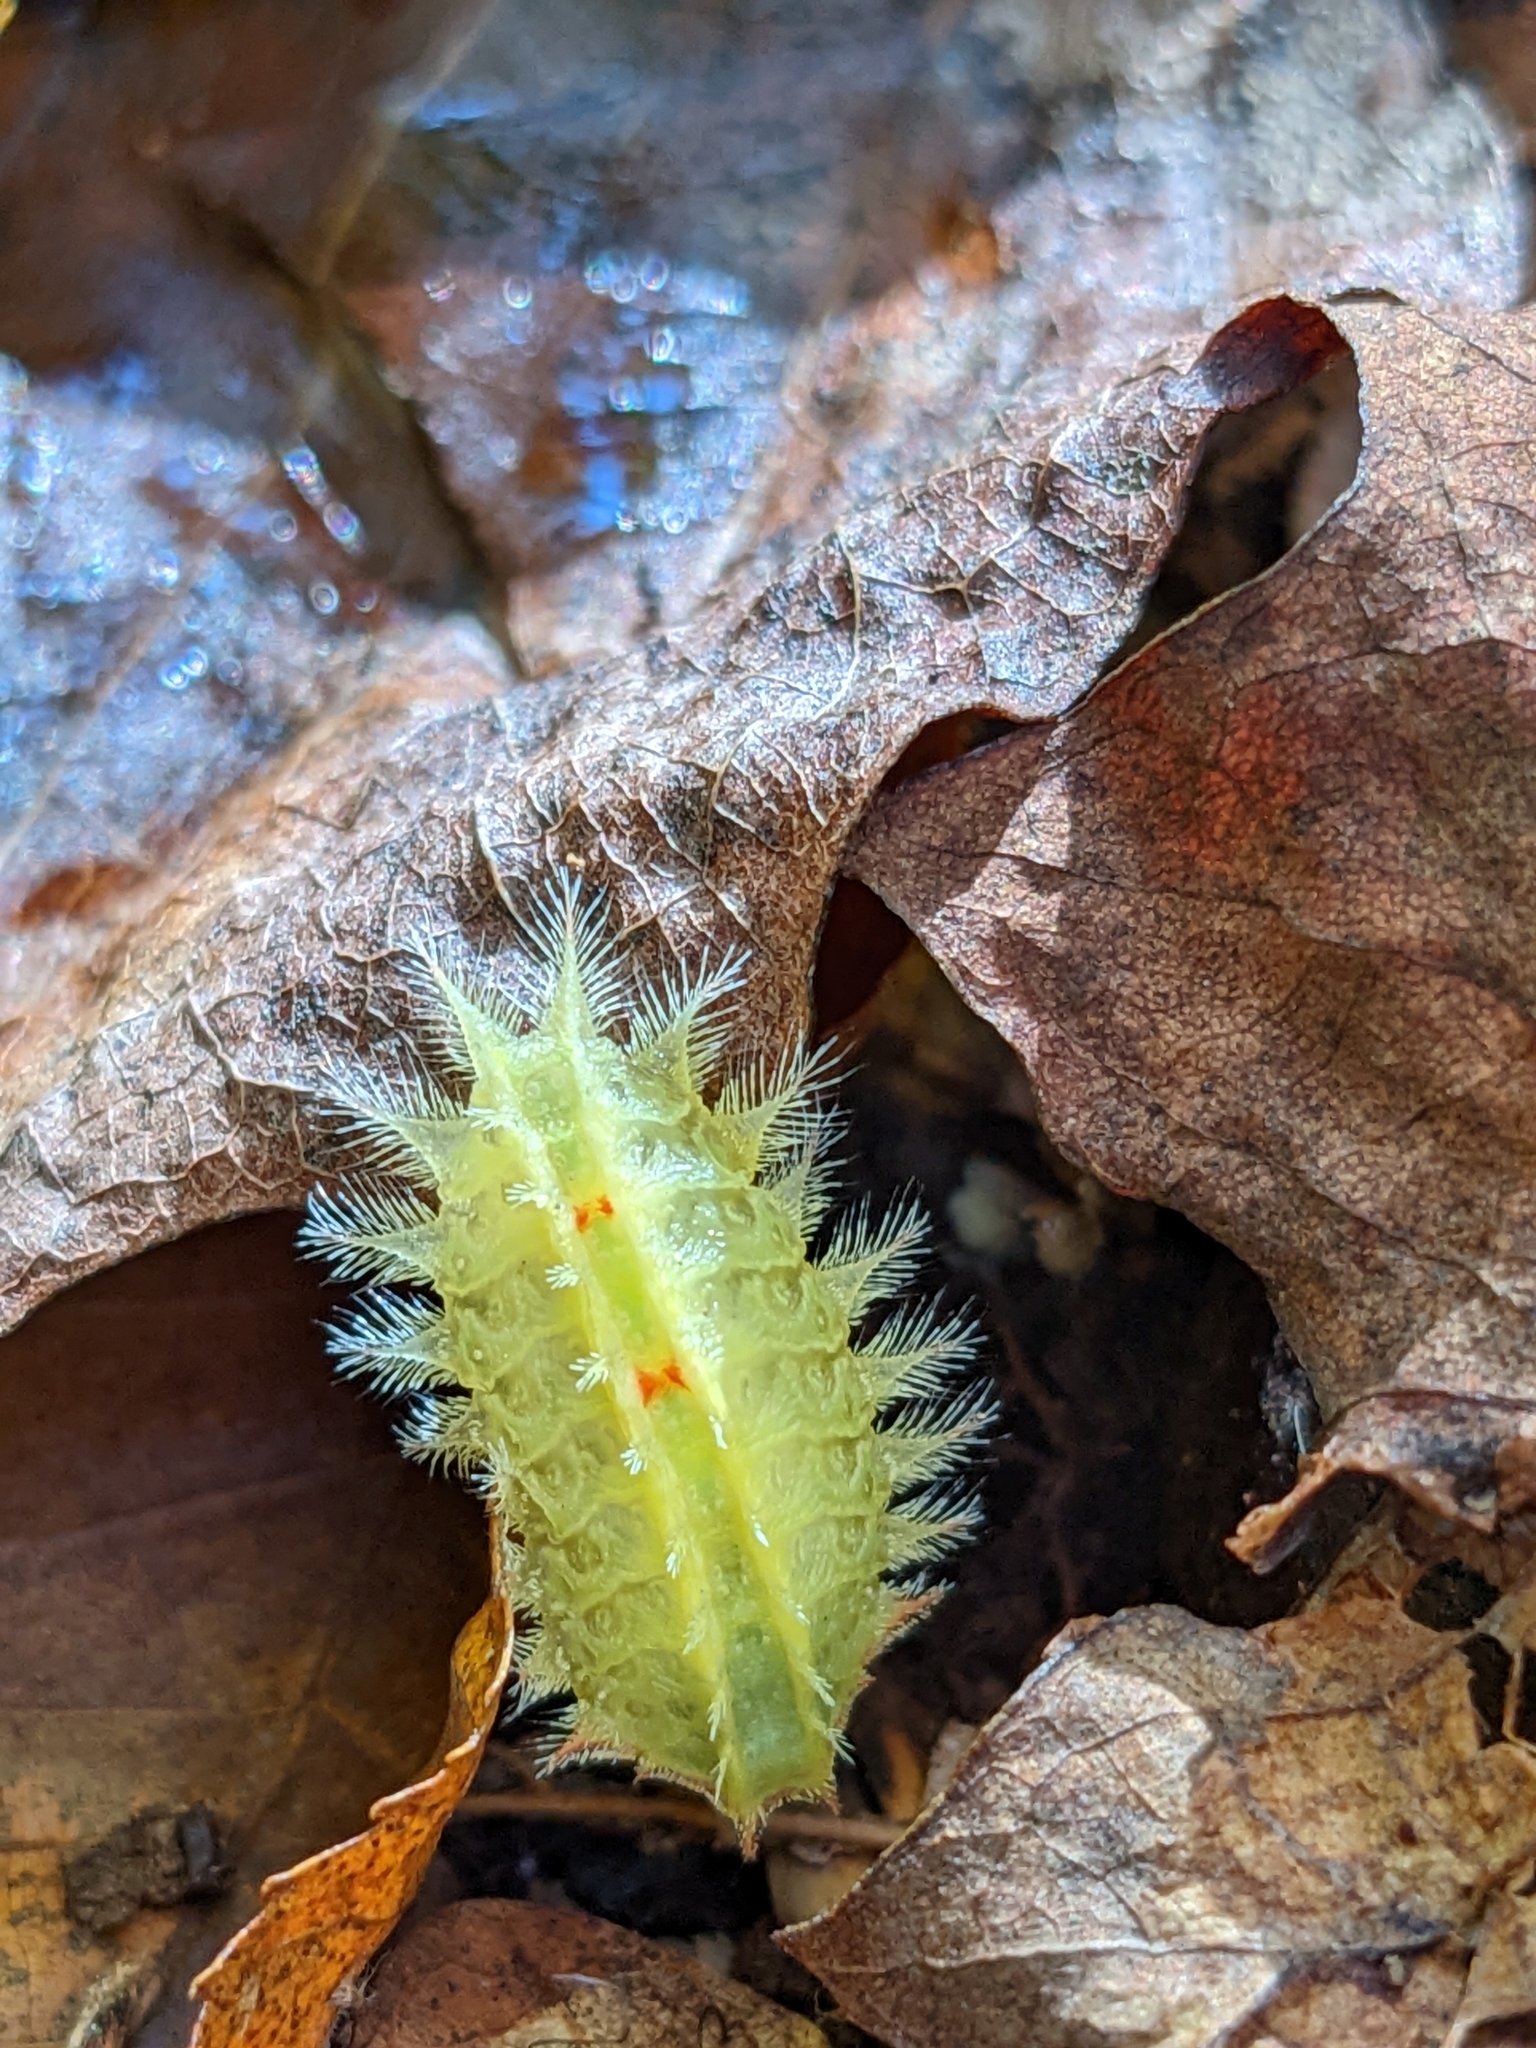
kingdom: Animalia
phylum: Arthropoda
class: Insecta
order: Lepidoptera
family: Limacodidae
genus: Isa
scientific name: Isa textula
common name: Crowned slug moth
